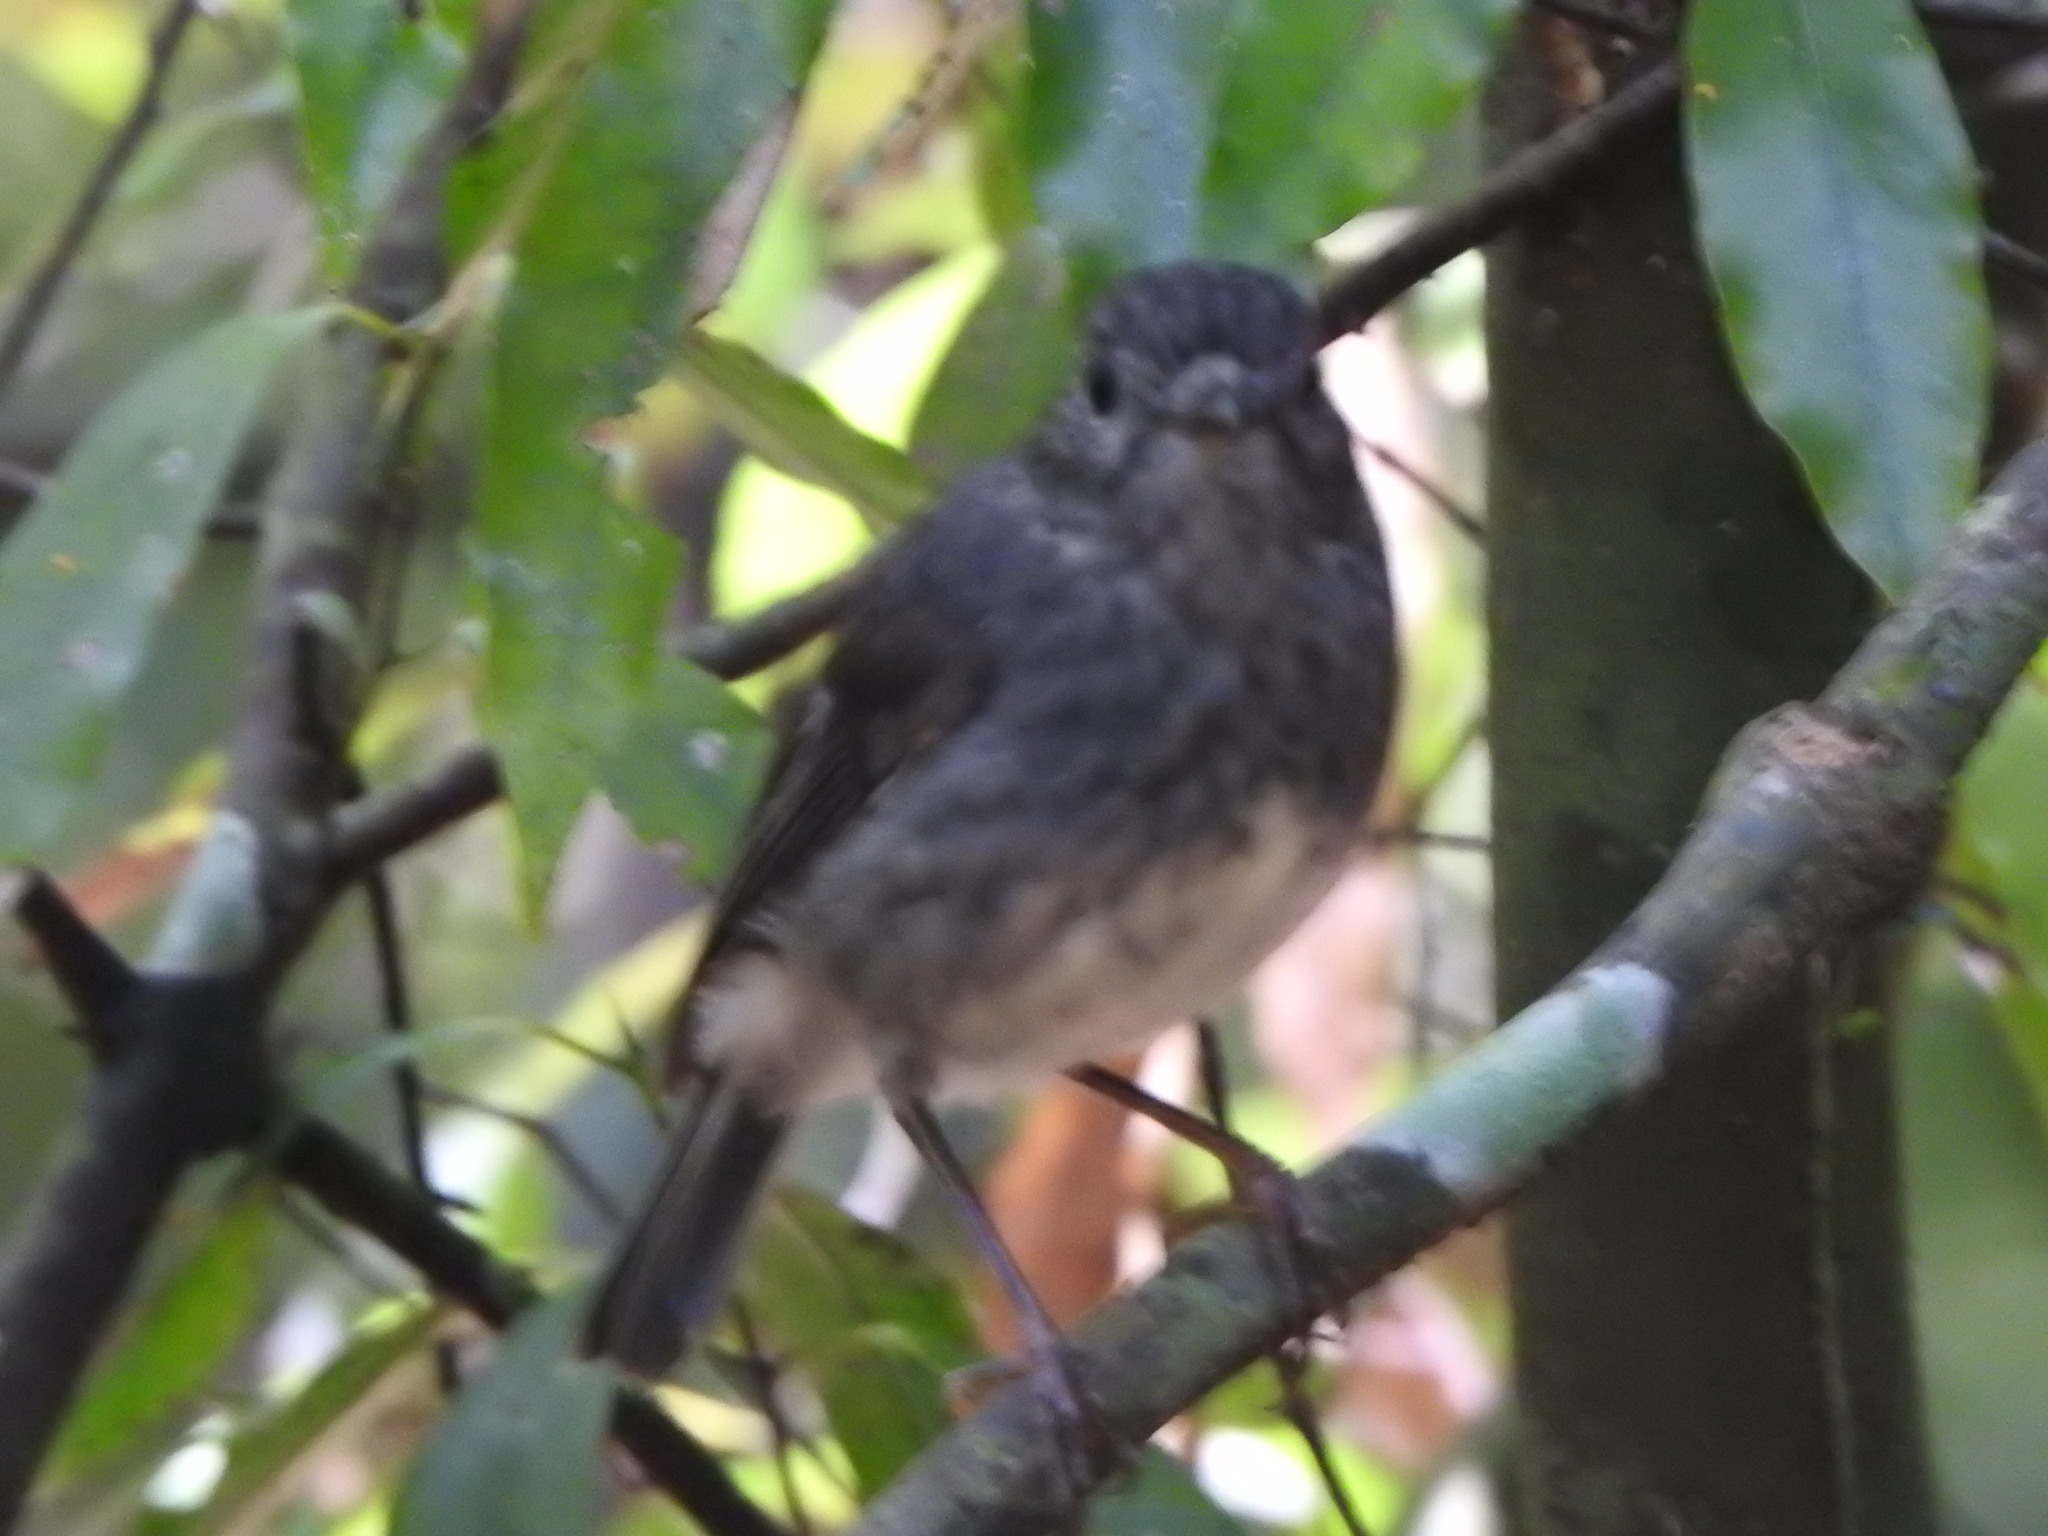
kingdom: Animalia
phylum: Chordata
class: Aves
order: Passeriformes
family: Petroicidae
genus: Petroica
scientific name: Petroica australis
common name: New zealand robin
